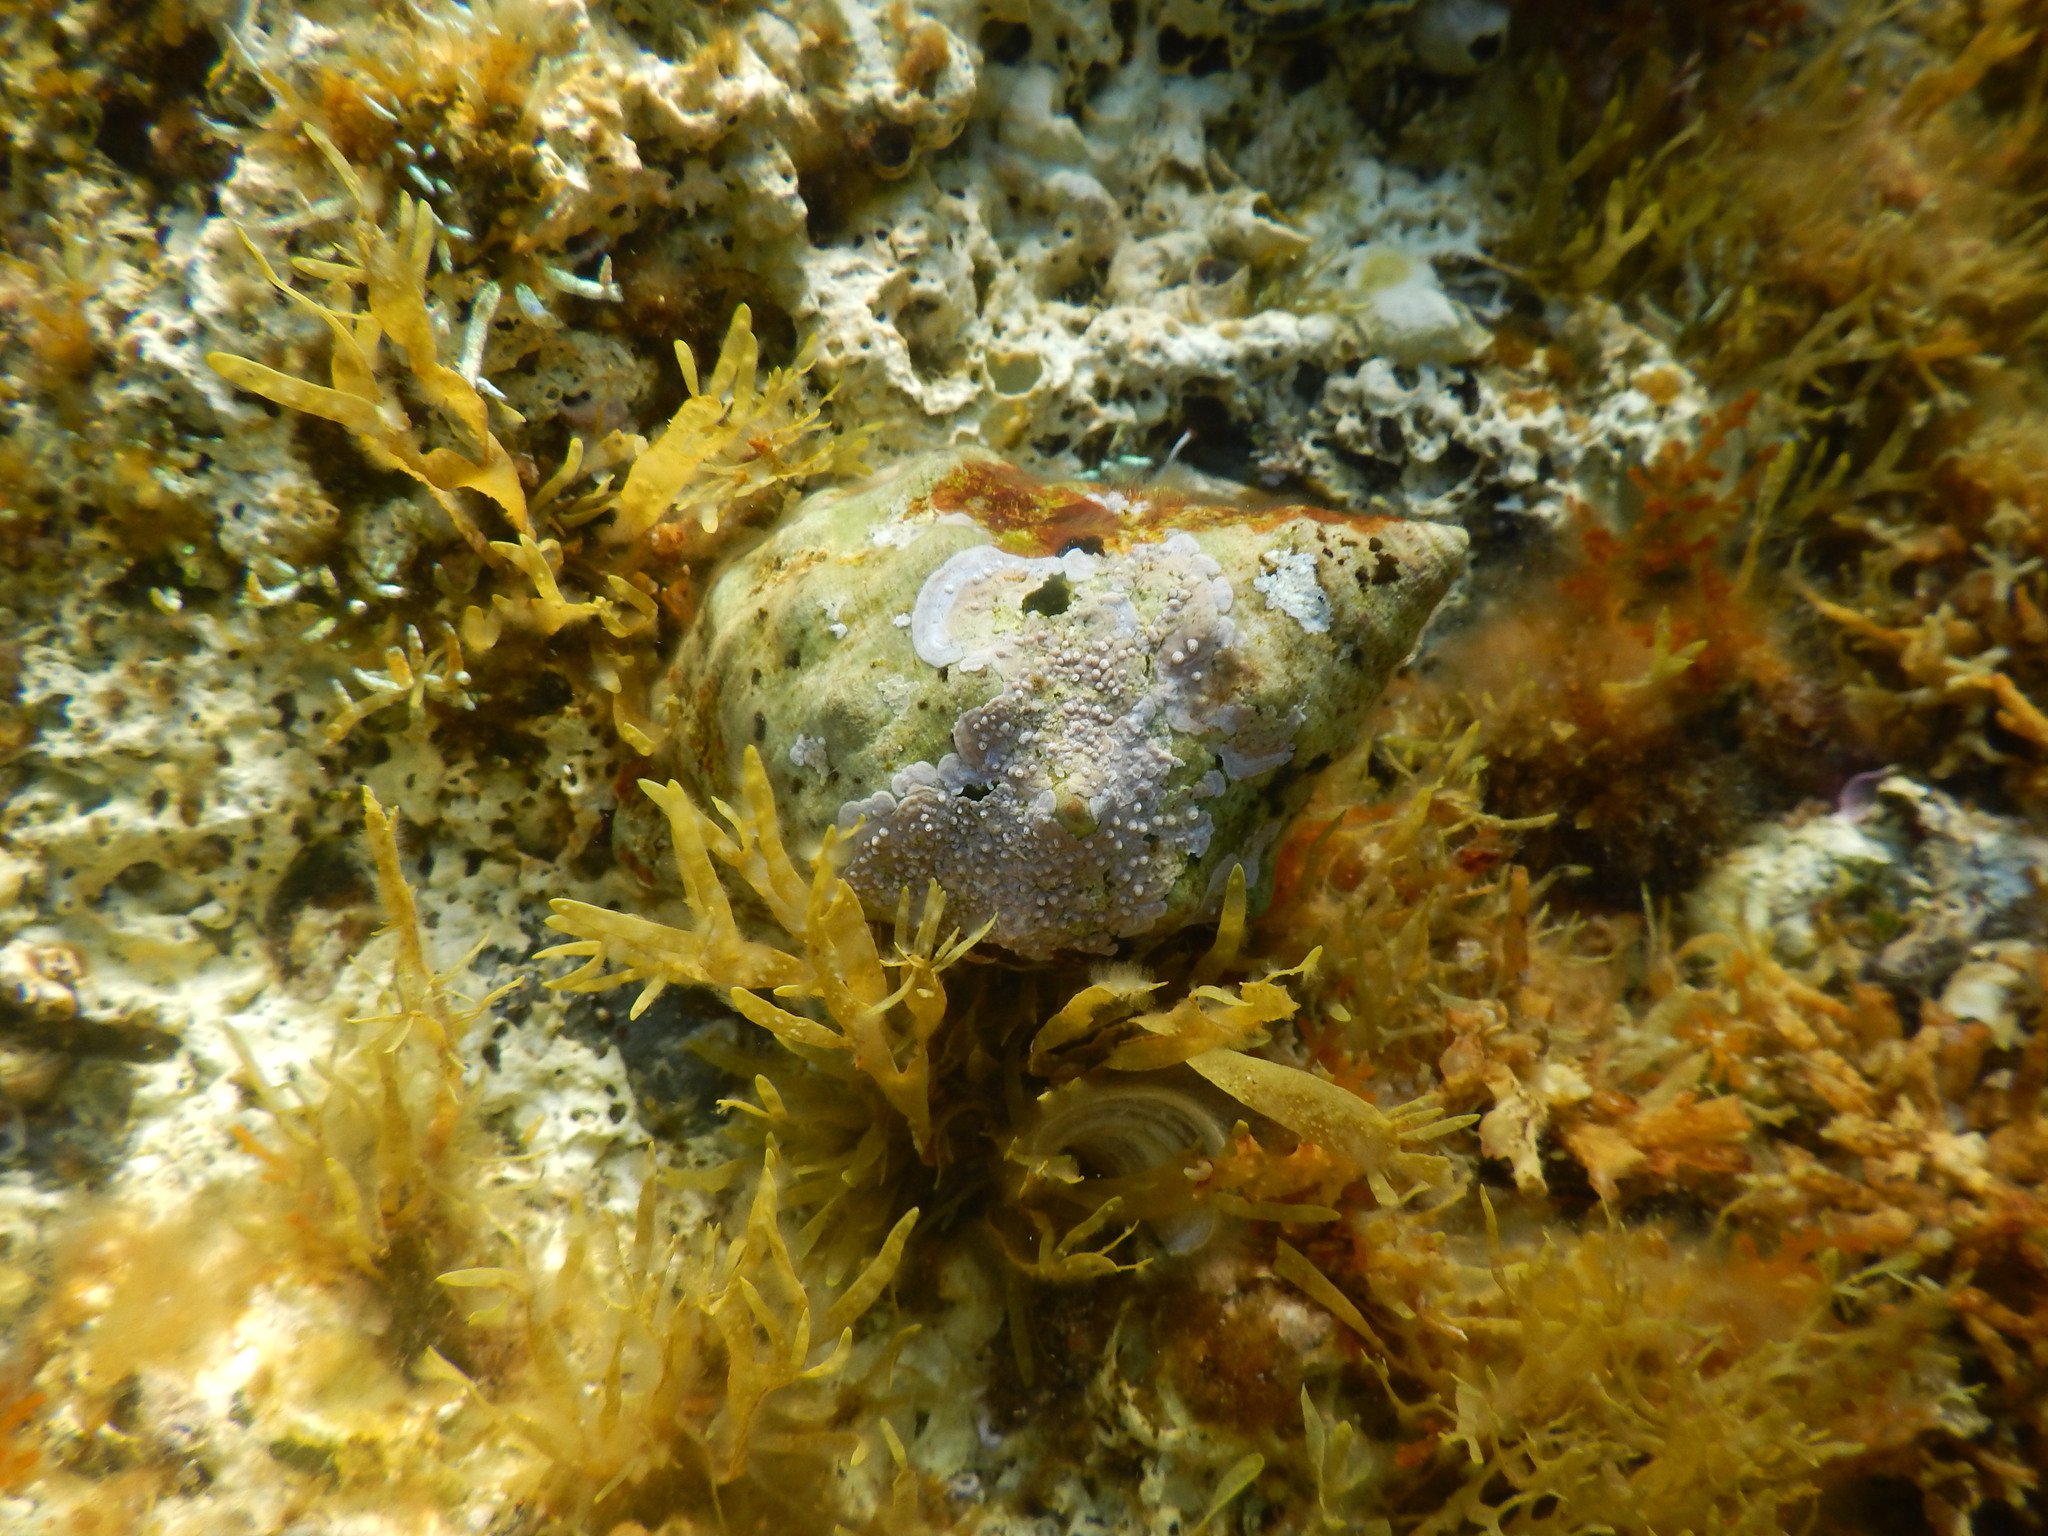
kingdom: Animalia
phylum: Mollusca
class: Gastropoda
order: Neogastropoda
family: Muricidae
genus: Stramonita
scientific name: Stramonita haemastoma
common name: Florida dog winkle
